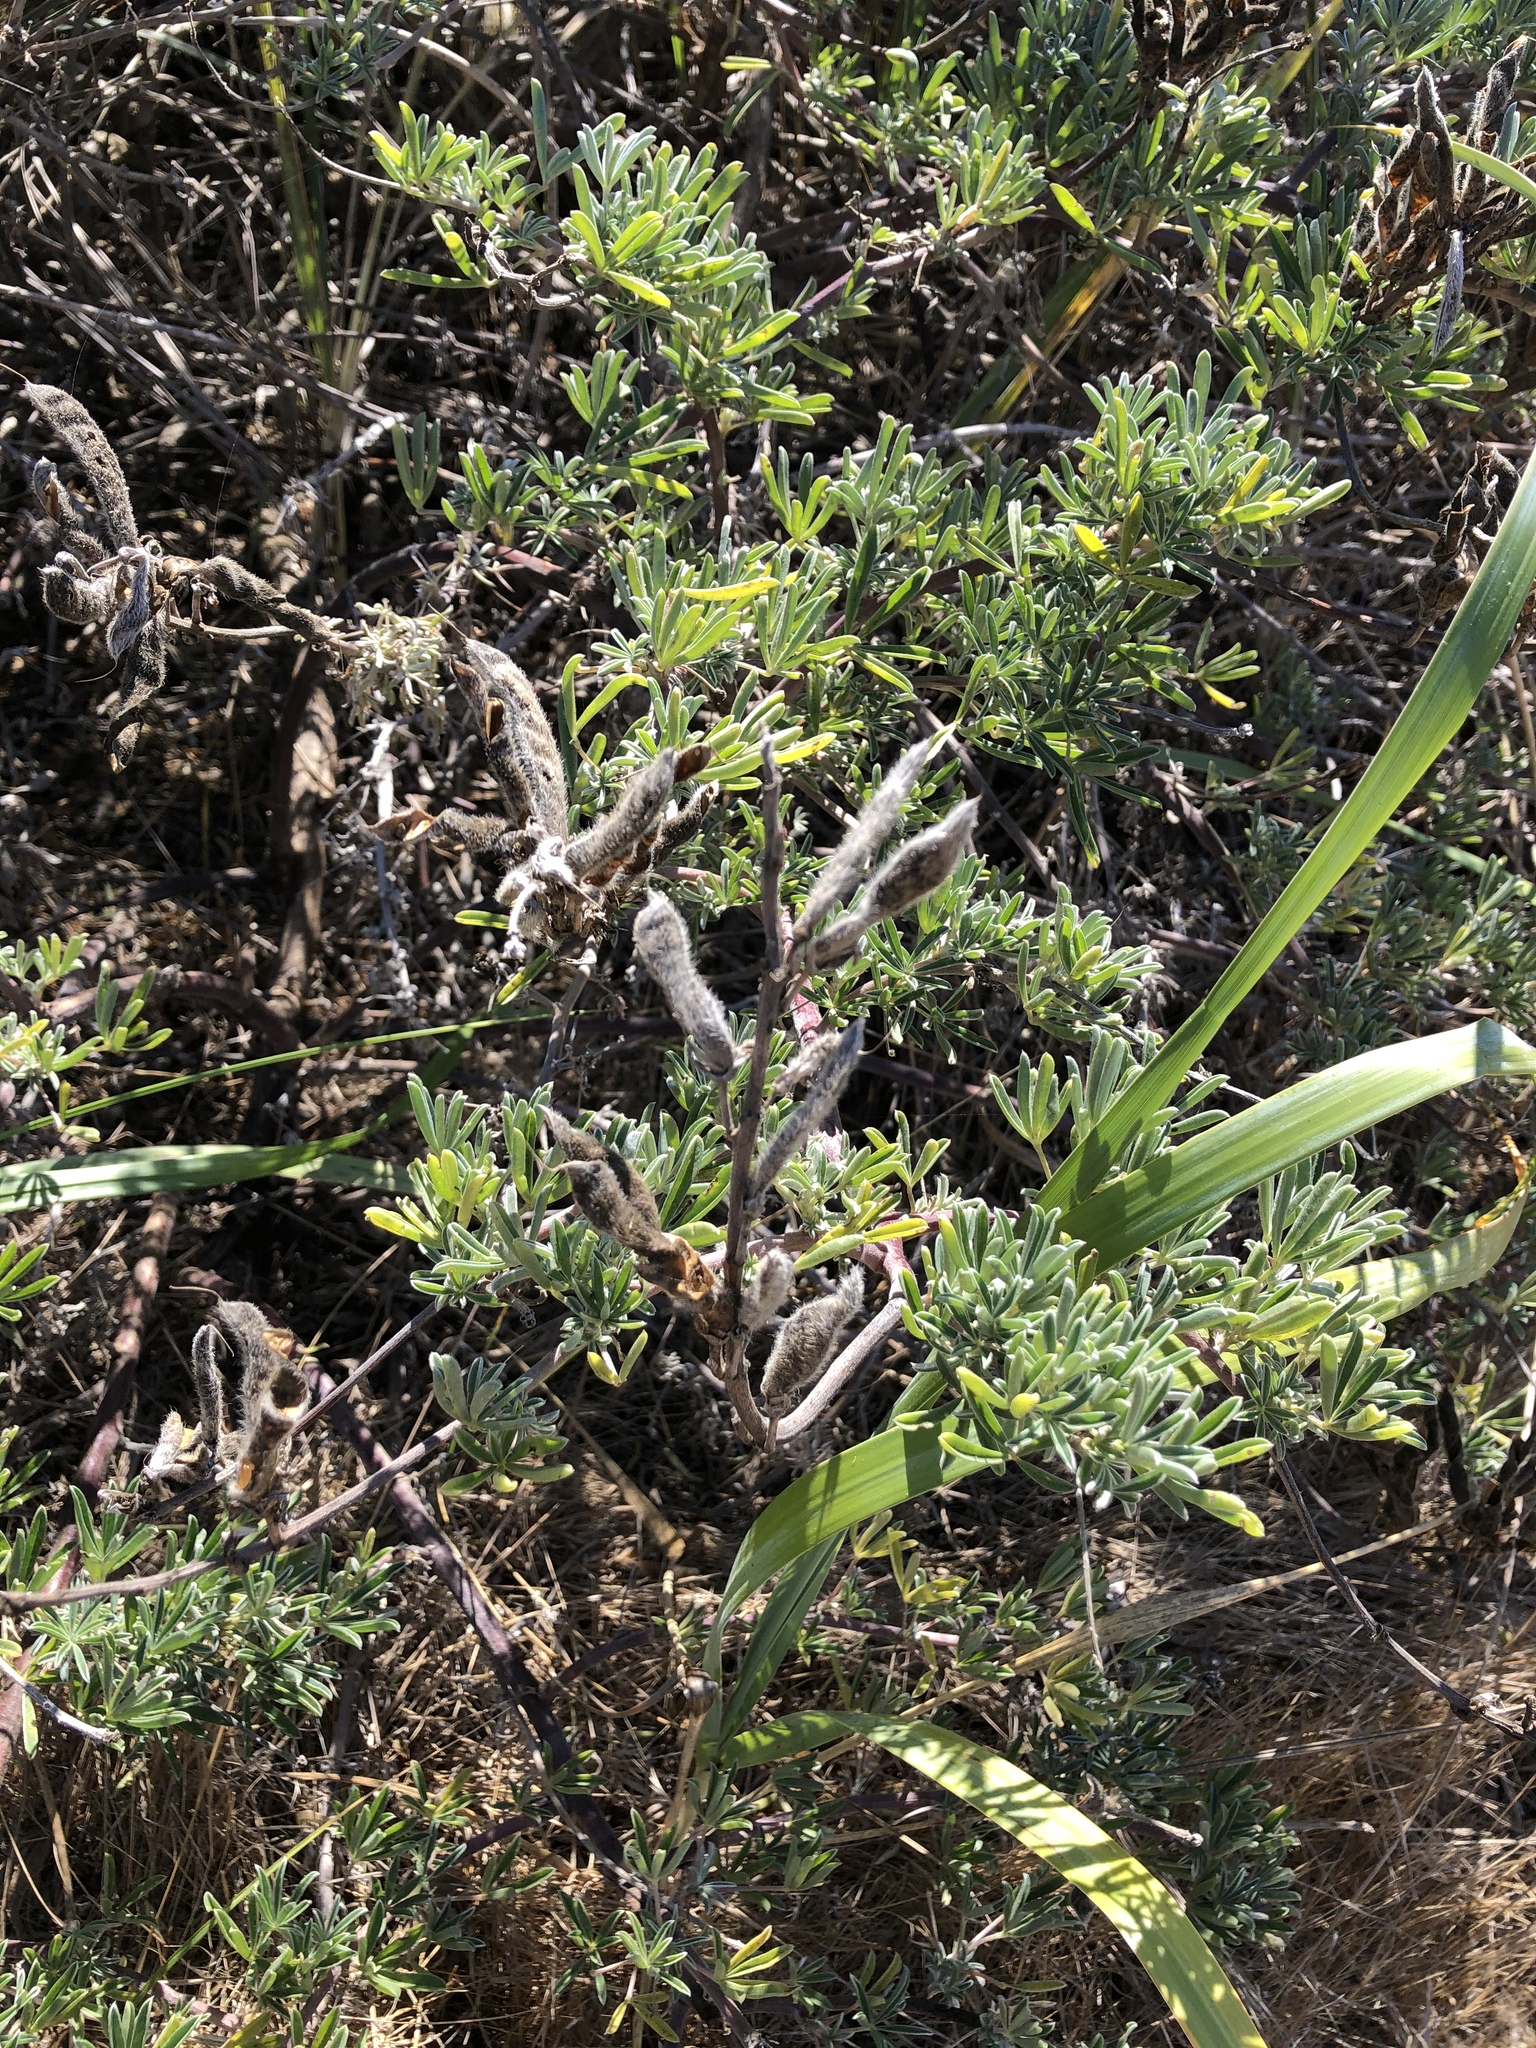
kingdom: Plantae
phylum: Tracheophyta
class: Magnoliopsida
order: Fabales
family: Fabaceae
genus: Lupinus
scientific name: Lupinus arboreus
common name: Yellow bush lupine
